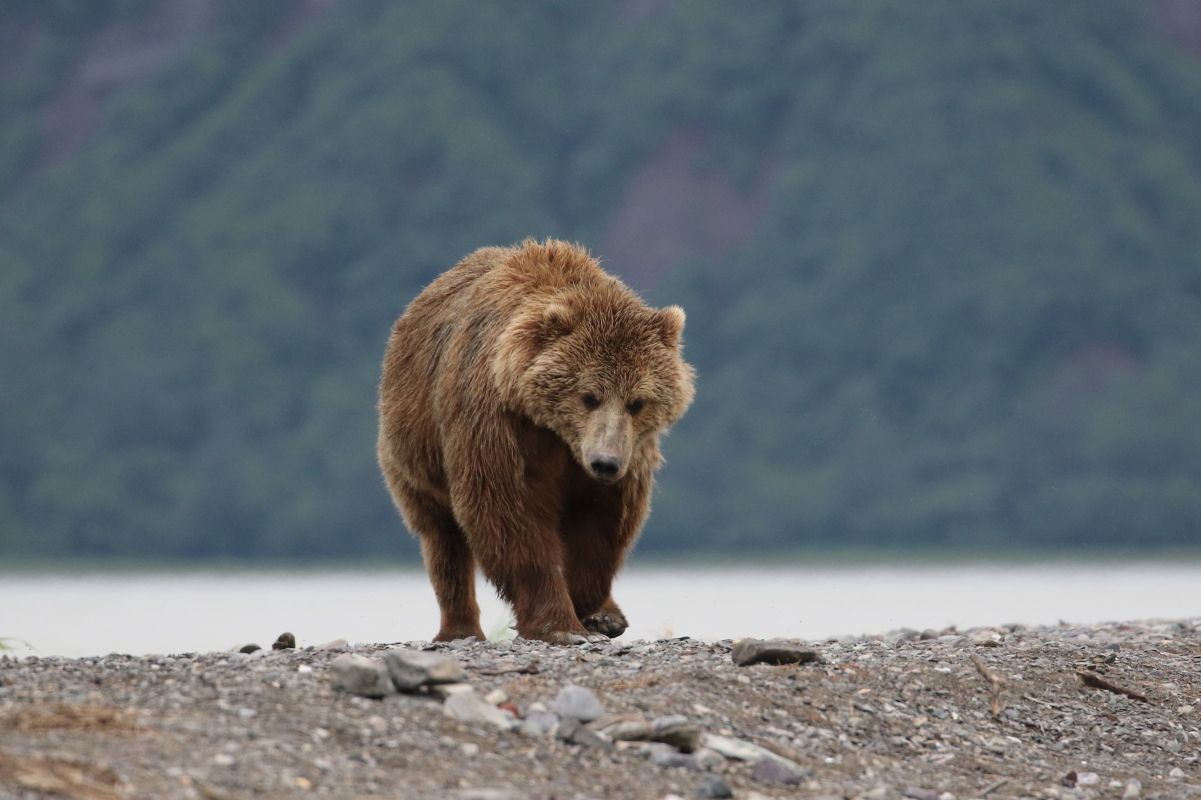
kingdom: Animalia
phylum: Chordata
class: Mammalia
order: Carnivora
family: Ursidae
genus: Ursus
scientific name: Ursus arctos
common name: Brown bear
